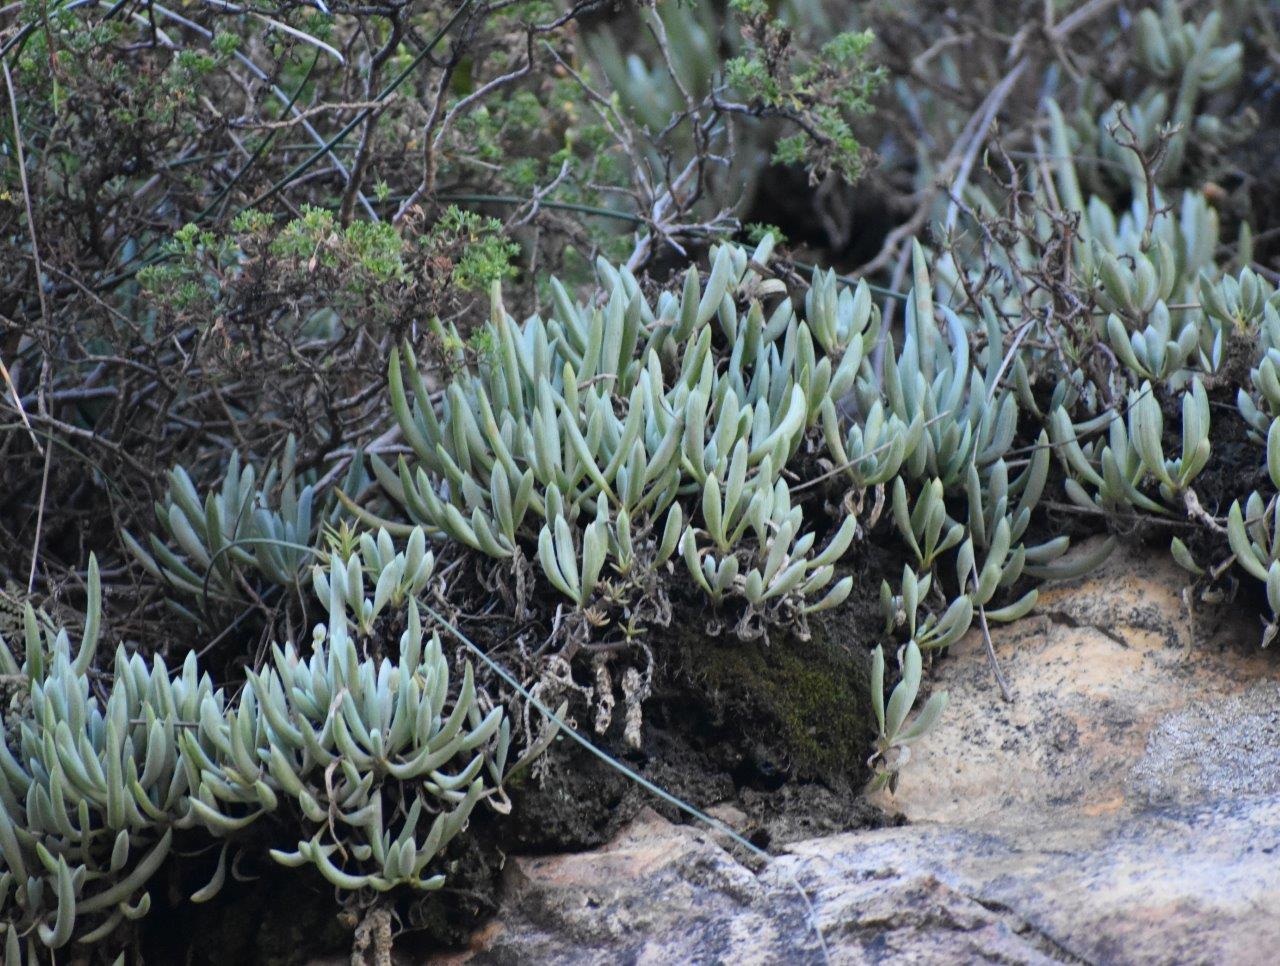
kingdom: Plantae
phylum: Tracheophyta
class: Magnoliopsida
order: Asterales
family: Asteraceae
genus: Curio
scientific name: Curio talinoides
